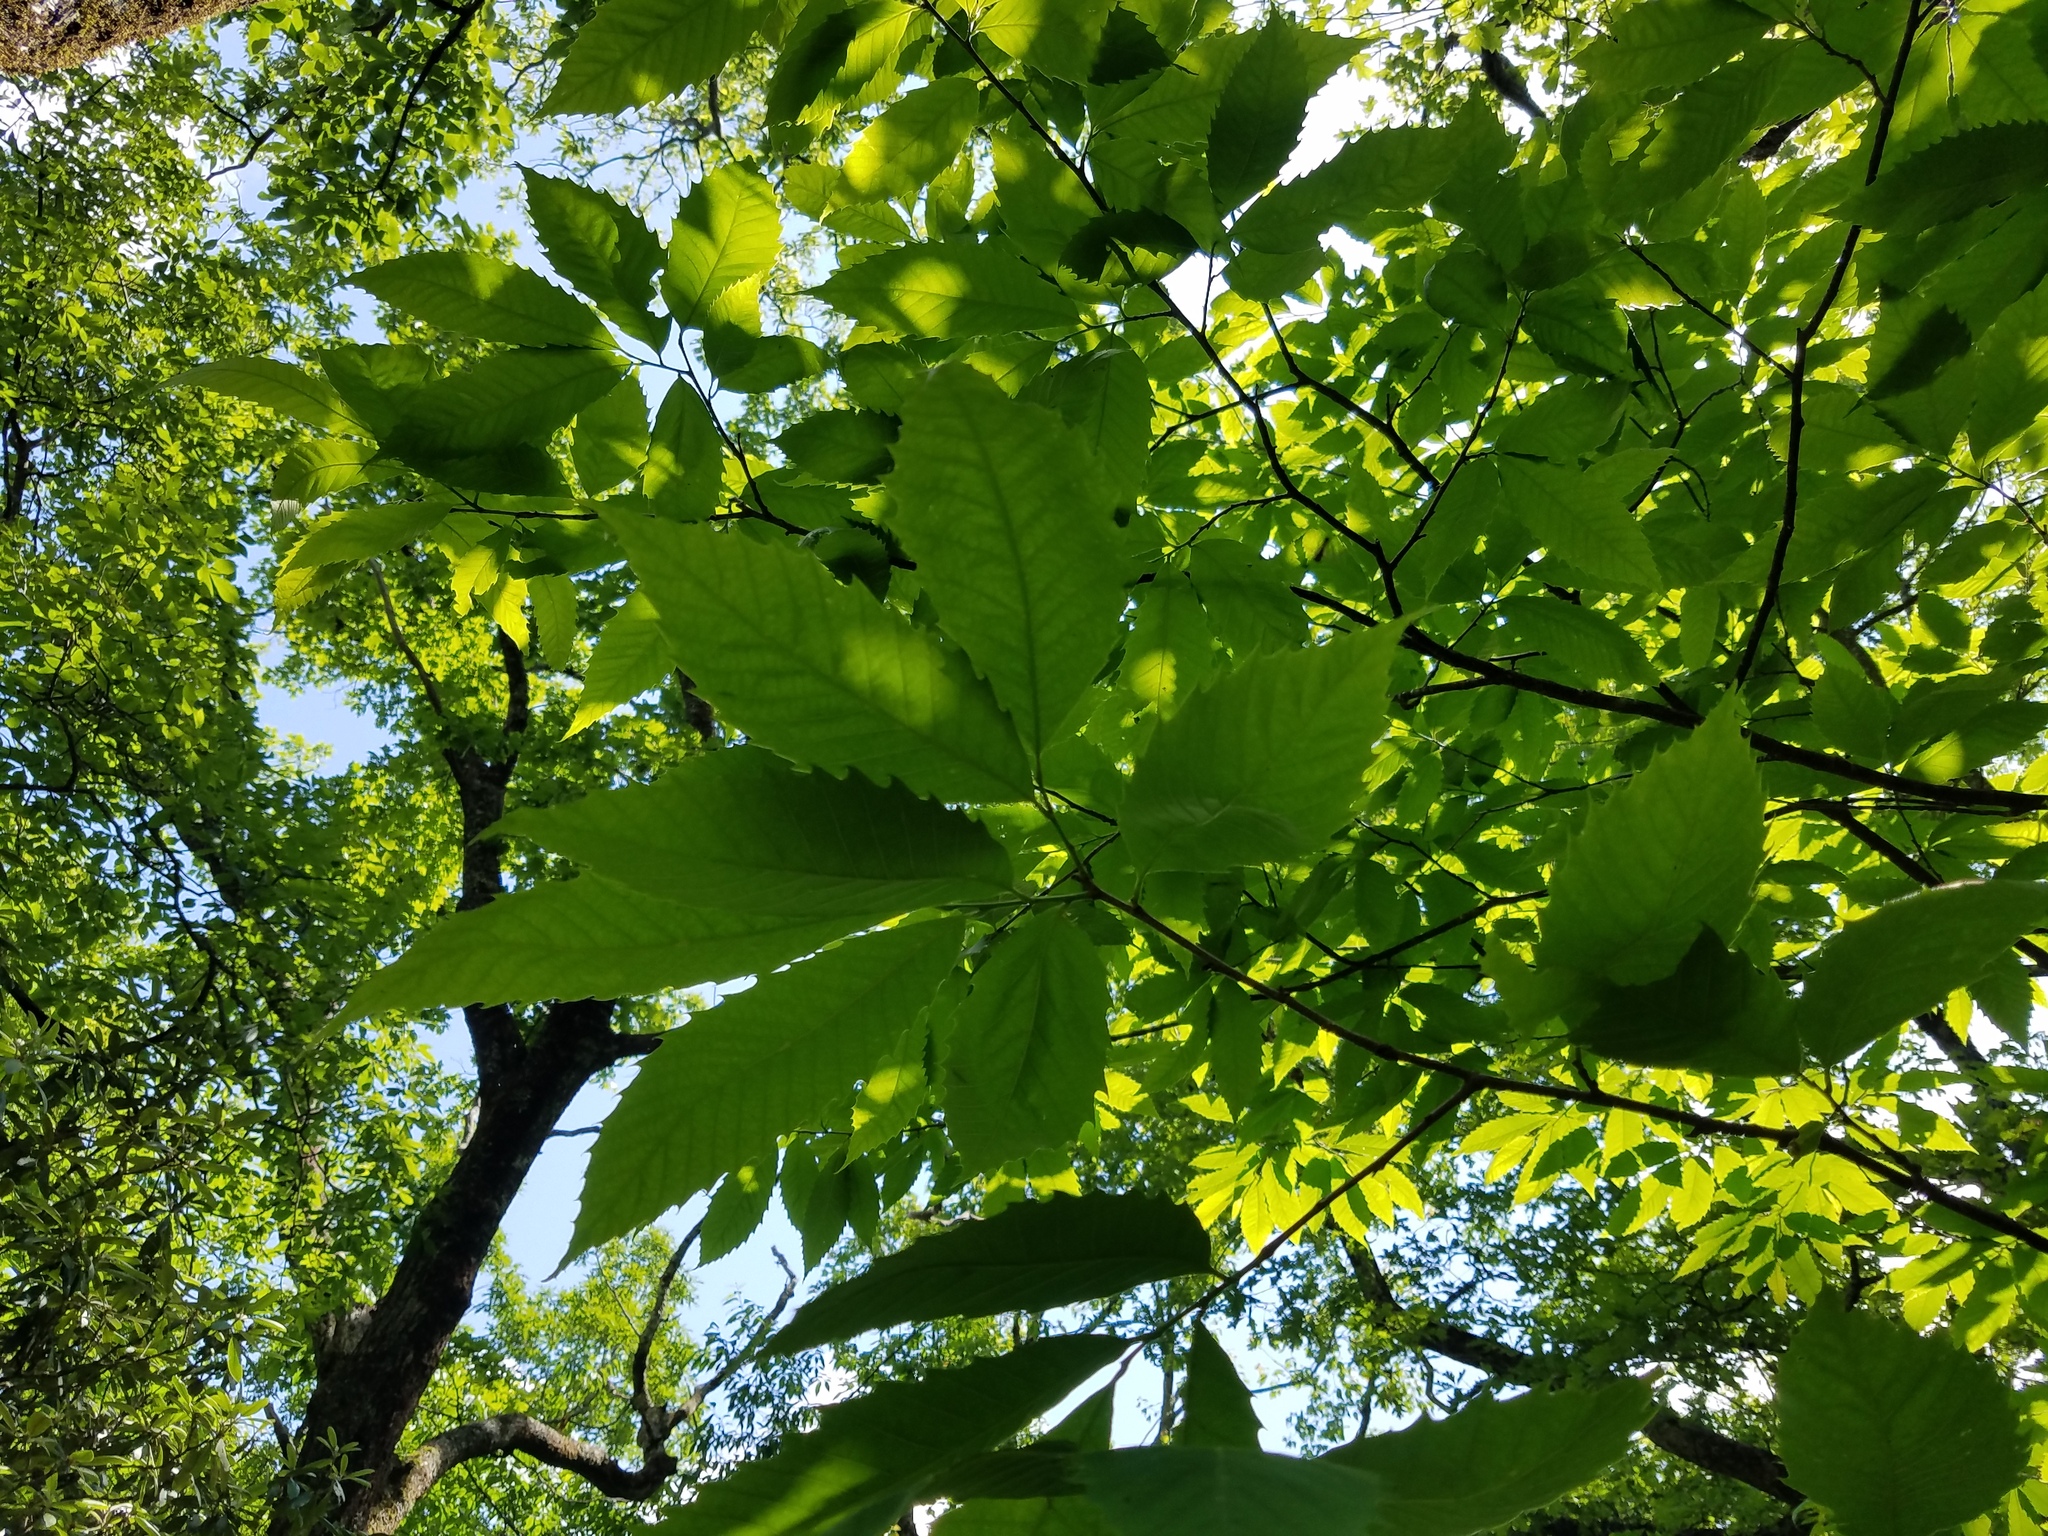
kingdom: Plantae
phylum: Tracheophyta
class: Magnoliopsida
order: Fagales
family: Fagaceae
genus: Castanea
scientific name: Castanea dentata
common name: American chestnut
